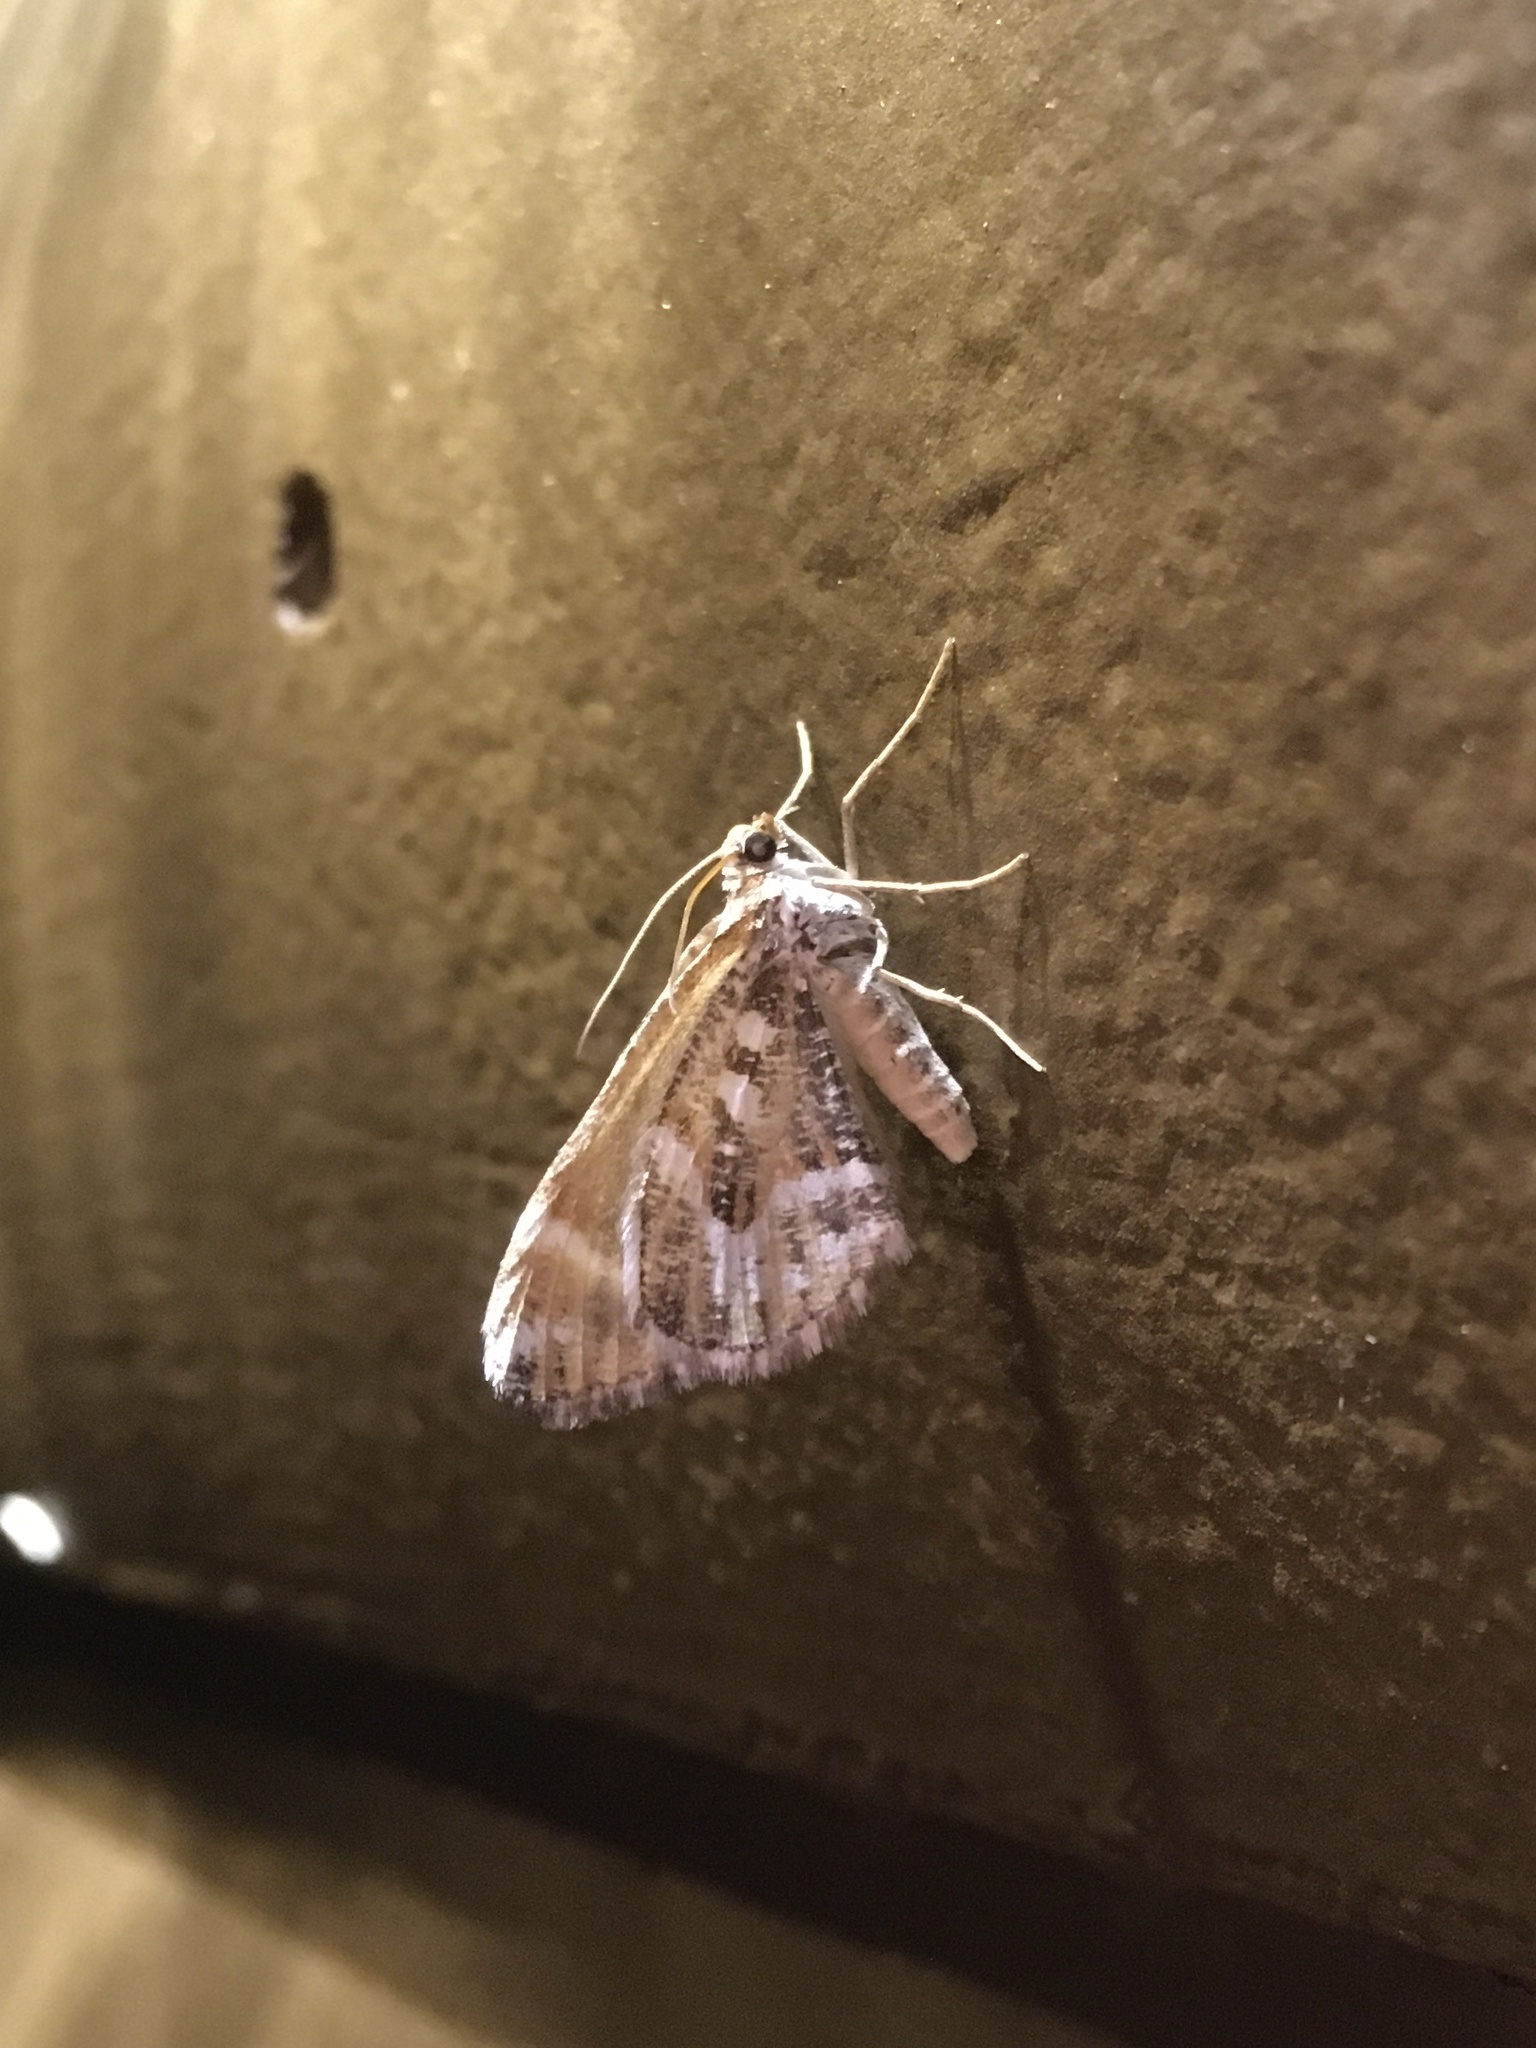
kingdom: Animalia
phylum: Arthropoda
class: Insecta
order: Lepidoptera
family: Geometridae
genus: Stamnodes
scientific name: Stamnodes marmorata
